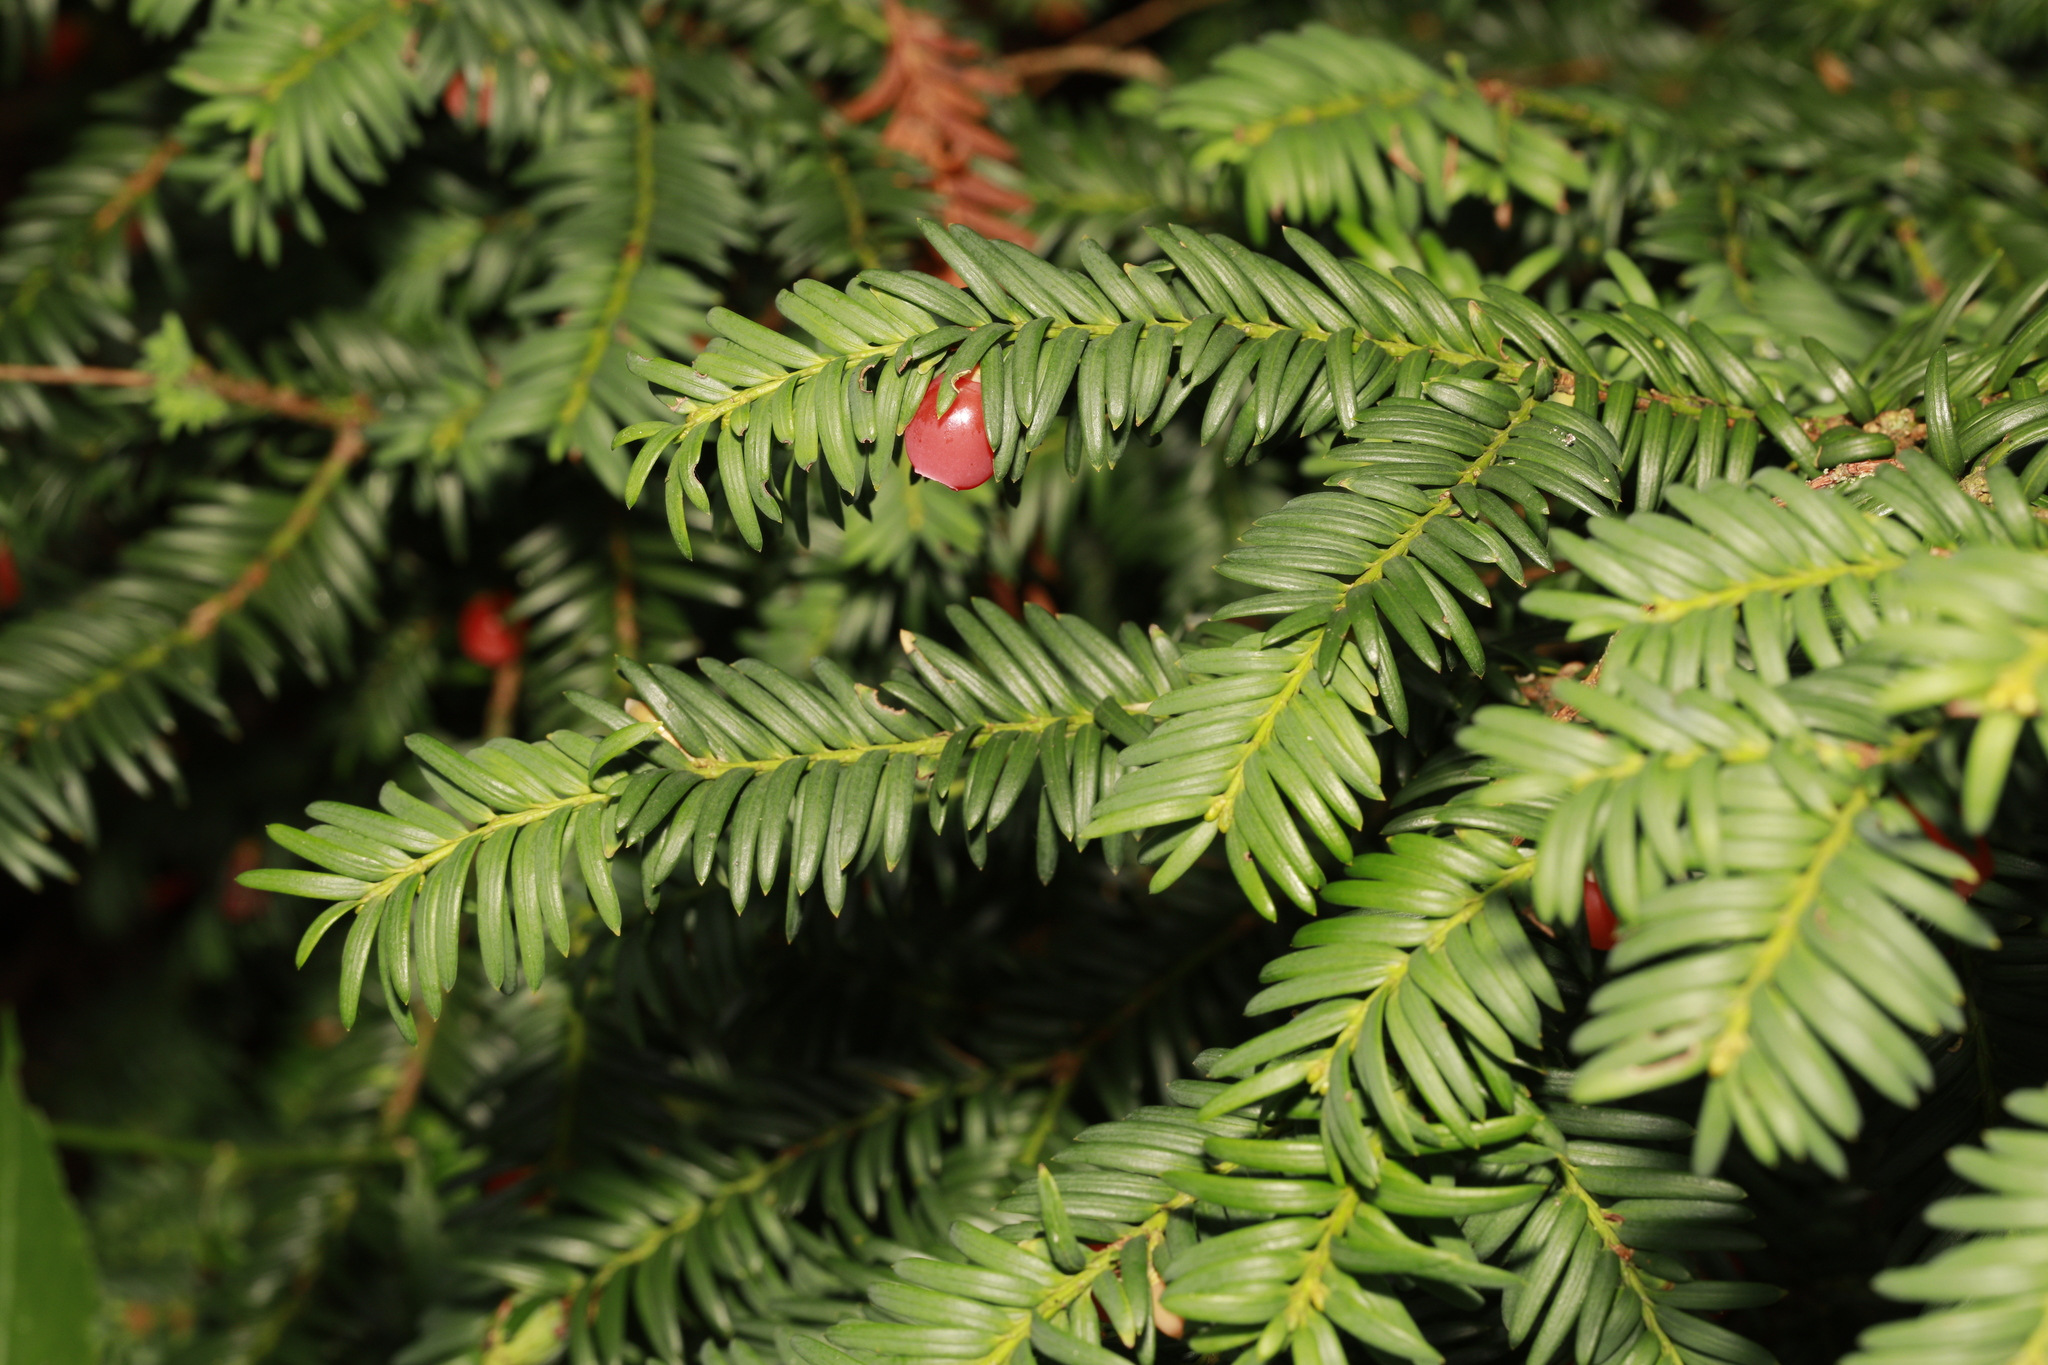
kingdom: Plantae
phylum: Tracheophyta
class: Pinopsida
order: Pinales
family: Taxaceae
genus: Taxus
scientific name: Taxus baccata
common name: Yew
